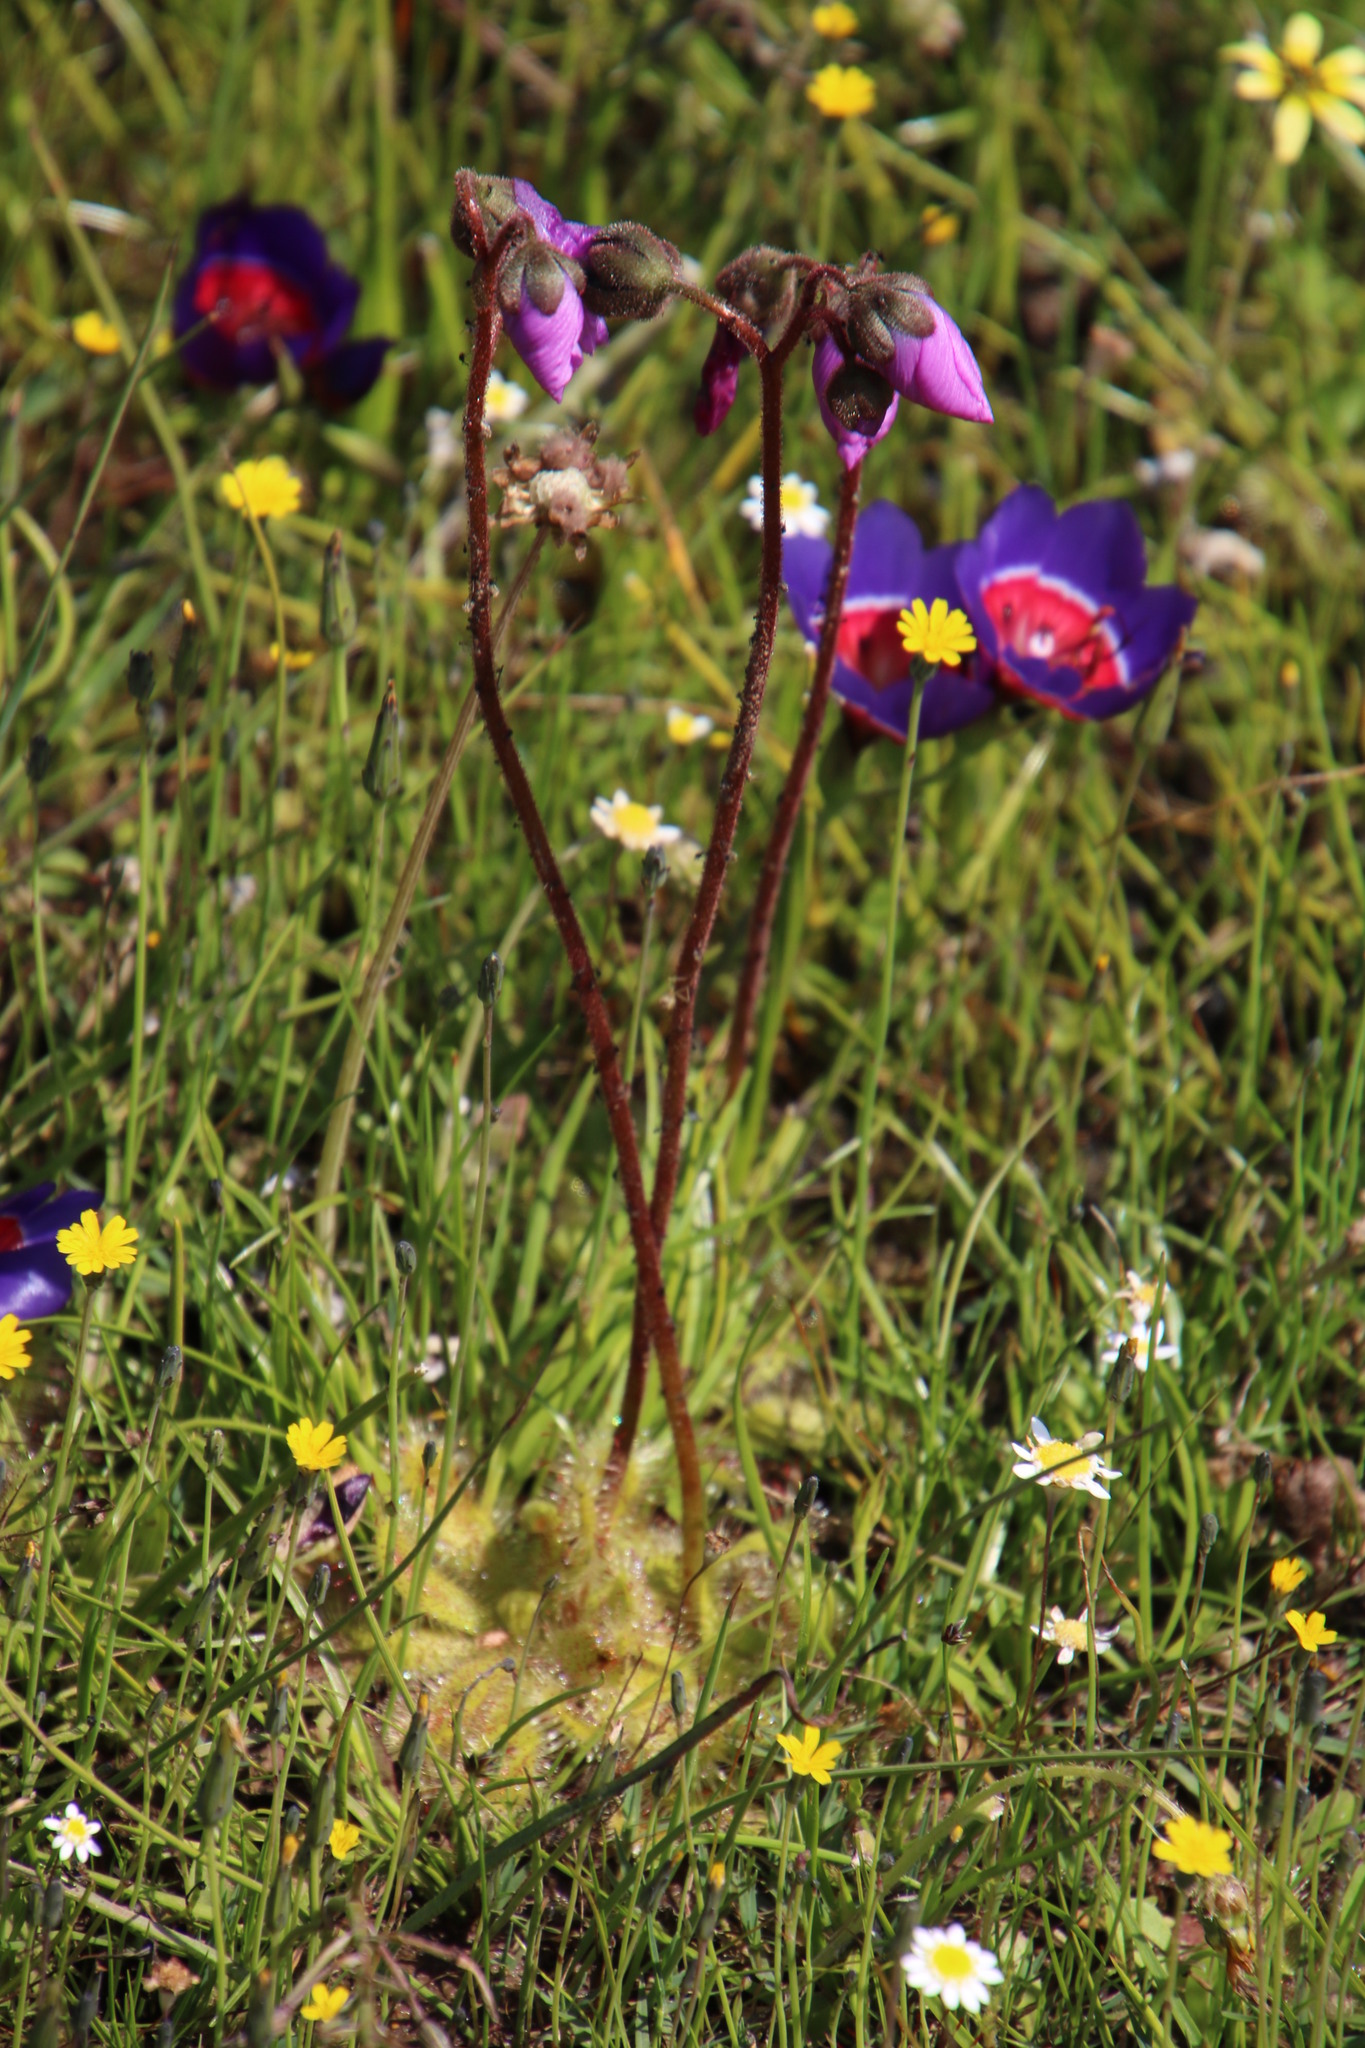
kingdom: Plantae
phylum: Tracheophyta
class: Magnoliopsida
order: Caryophyllales
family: Droseraceae
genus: Drosera
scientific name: Drosera pauciflora
